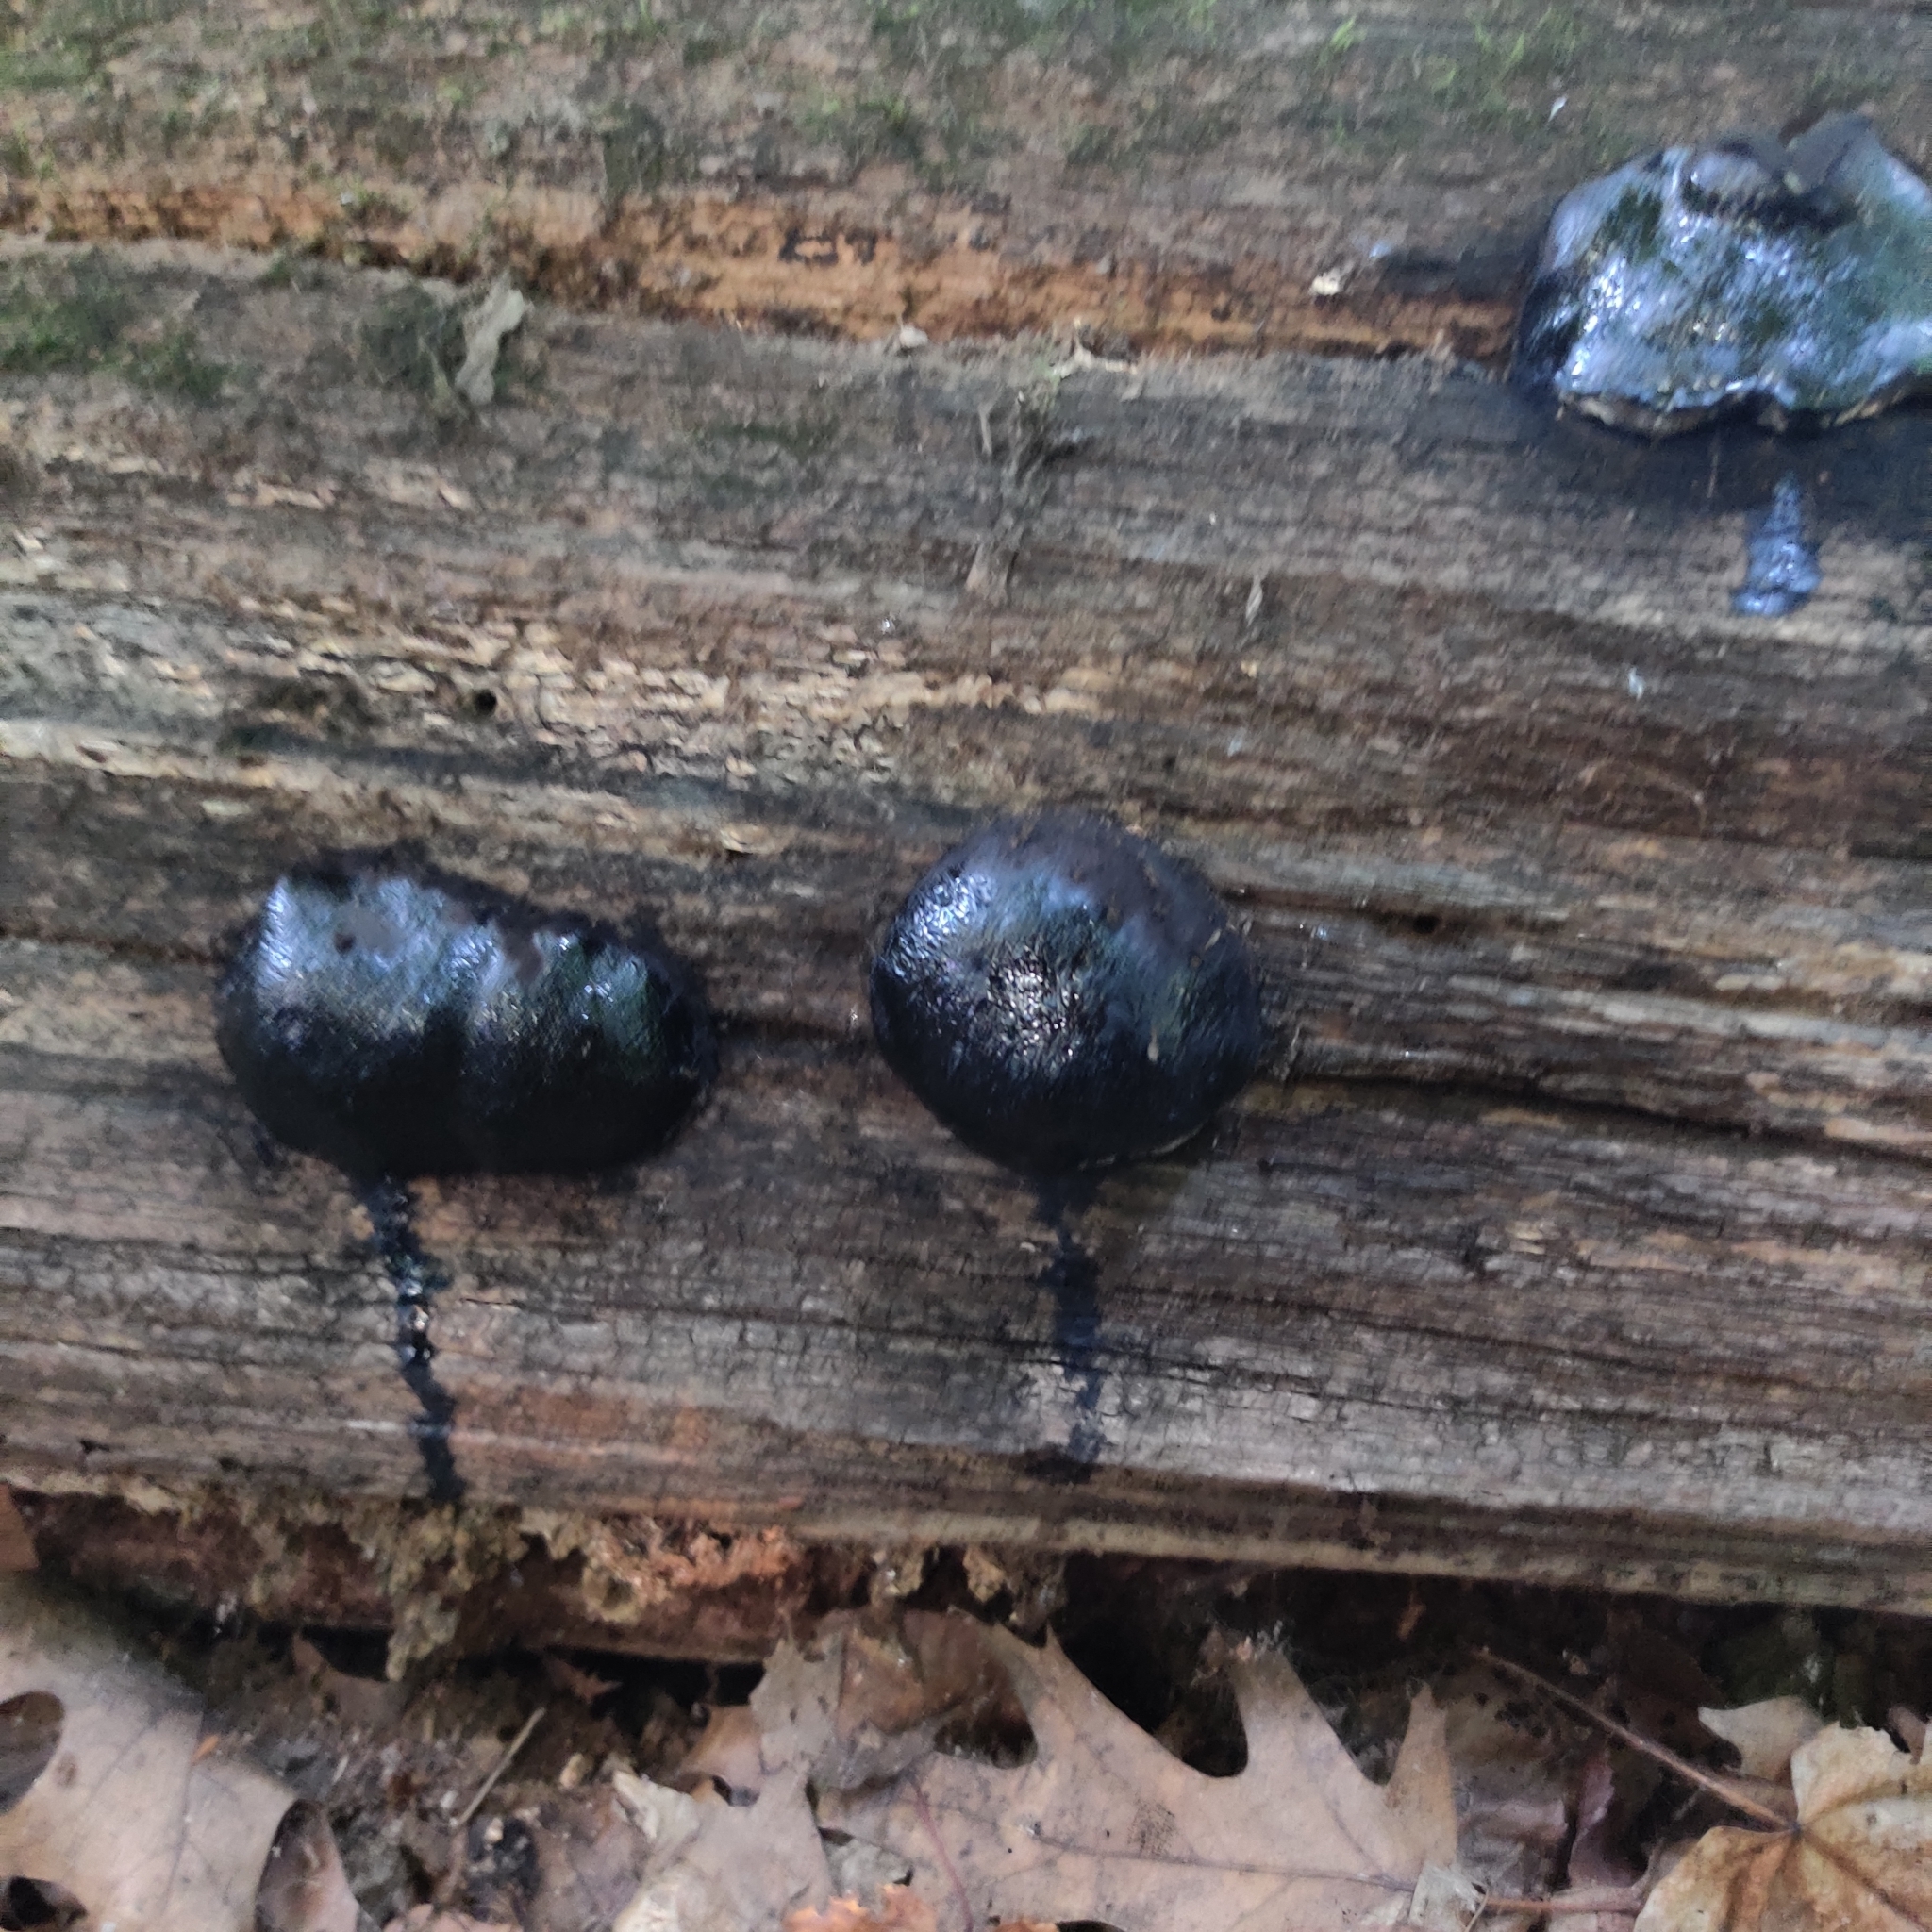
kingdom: Fungi
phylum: Ascomycota
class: Sordariomycetes
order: Boliniales
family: Boliniaceae
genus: Camarops
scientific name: Camarops petersii
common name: Dog's nose fungus
